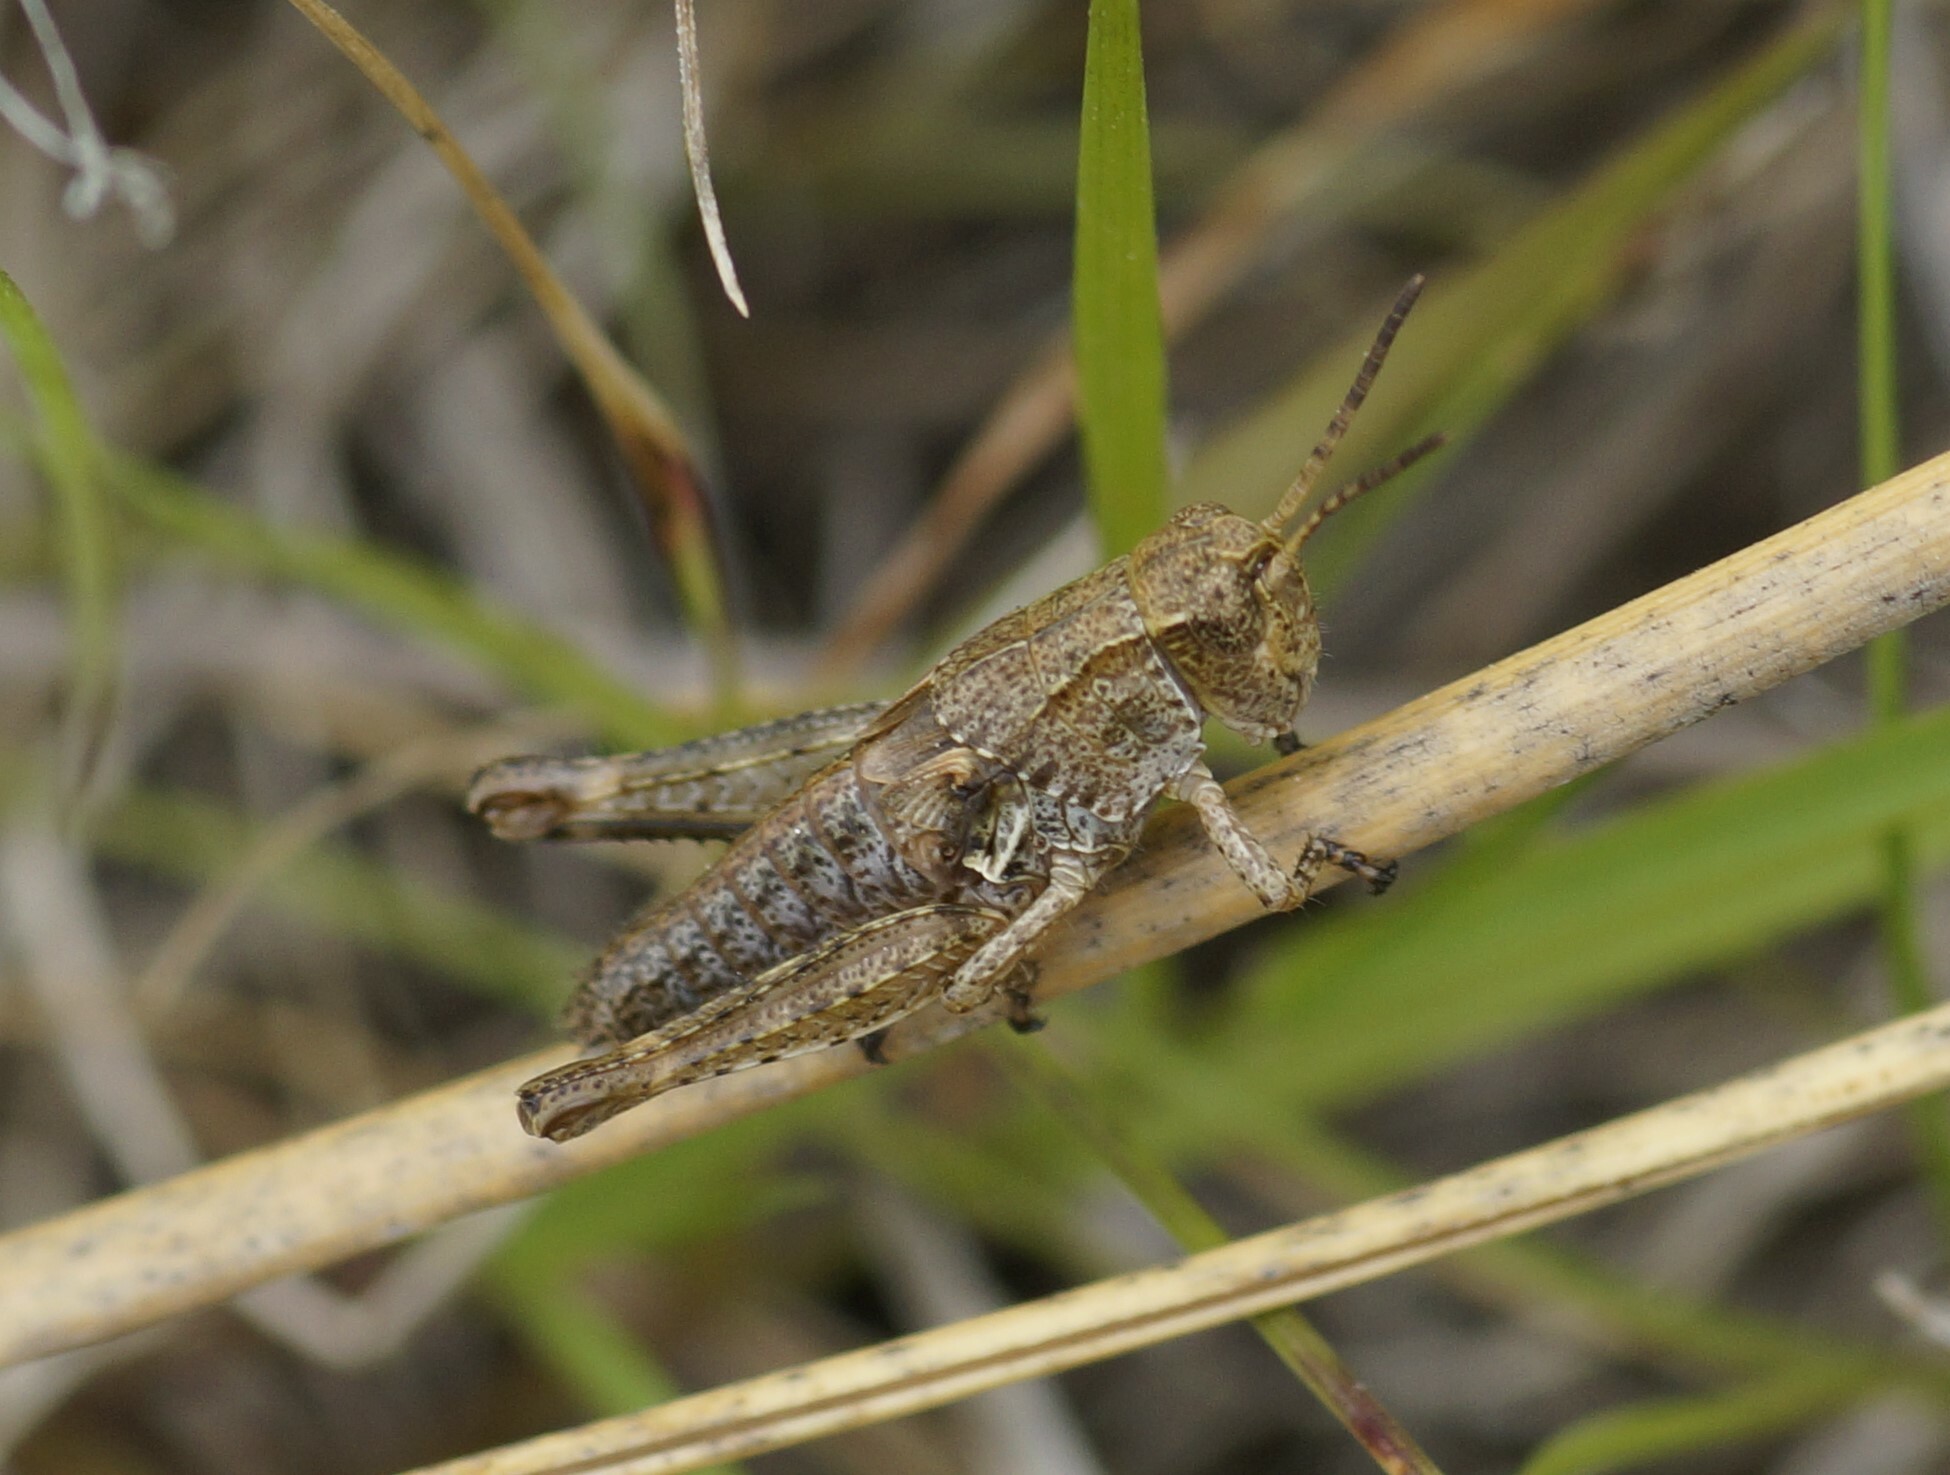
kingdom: Animalia
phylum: Arthropoda
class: Insecta
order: Orthoptera
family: Acrididae
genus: Phaulacridium
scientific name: Phaulacridium marginale
